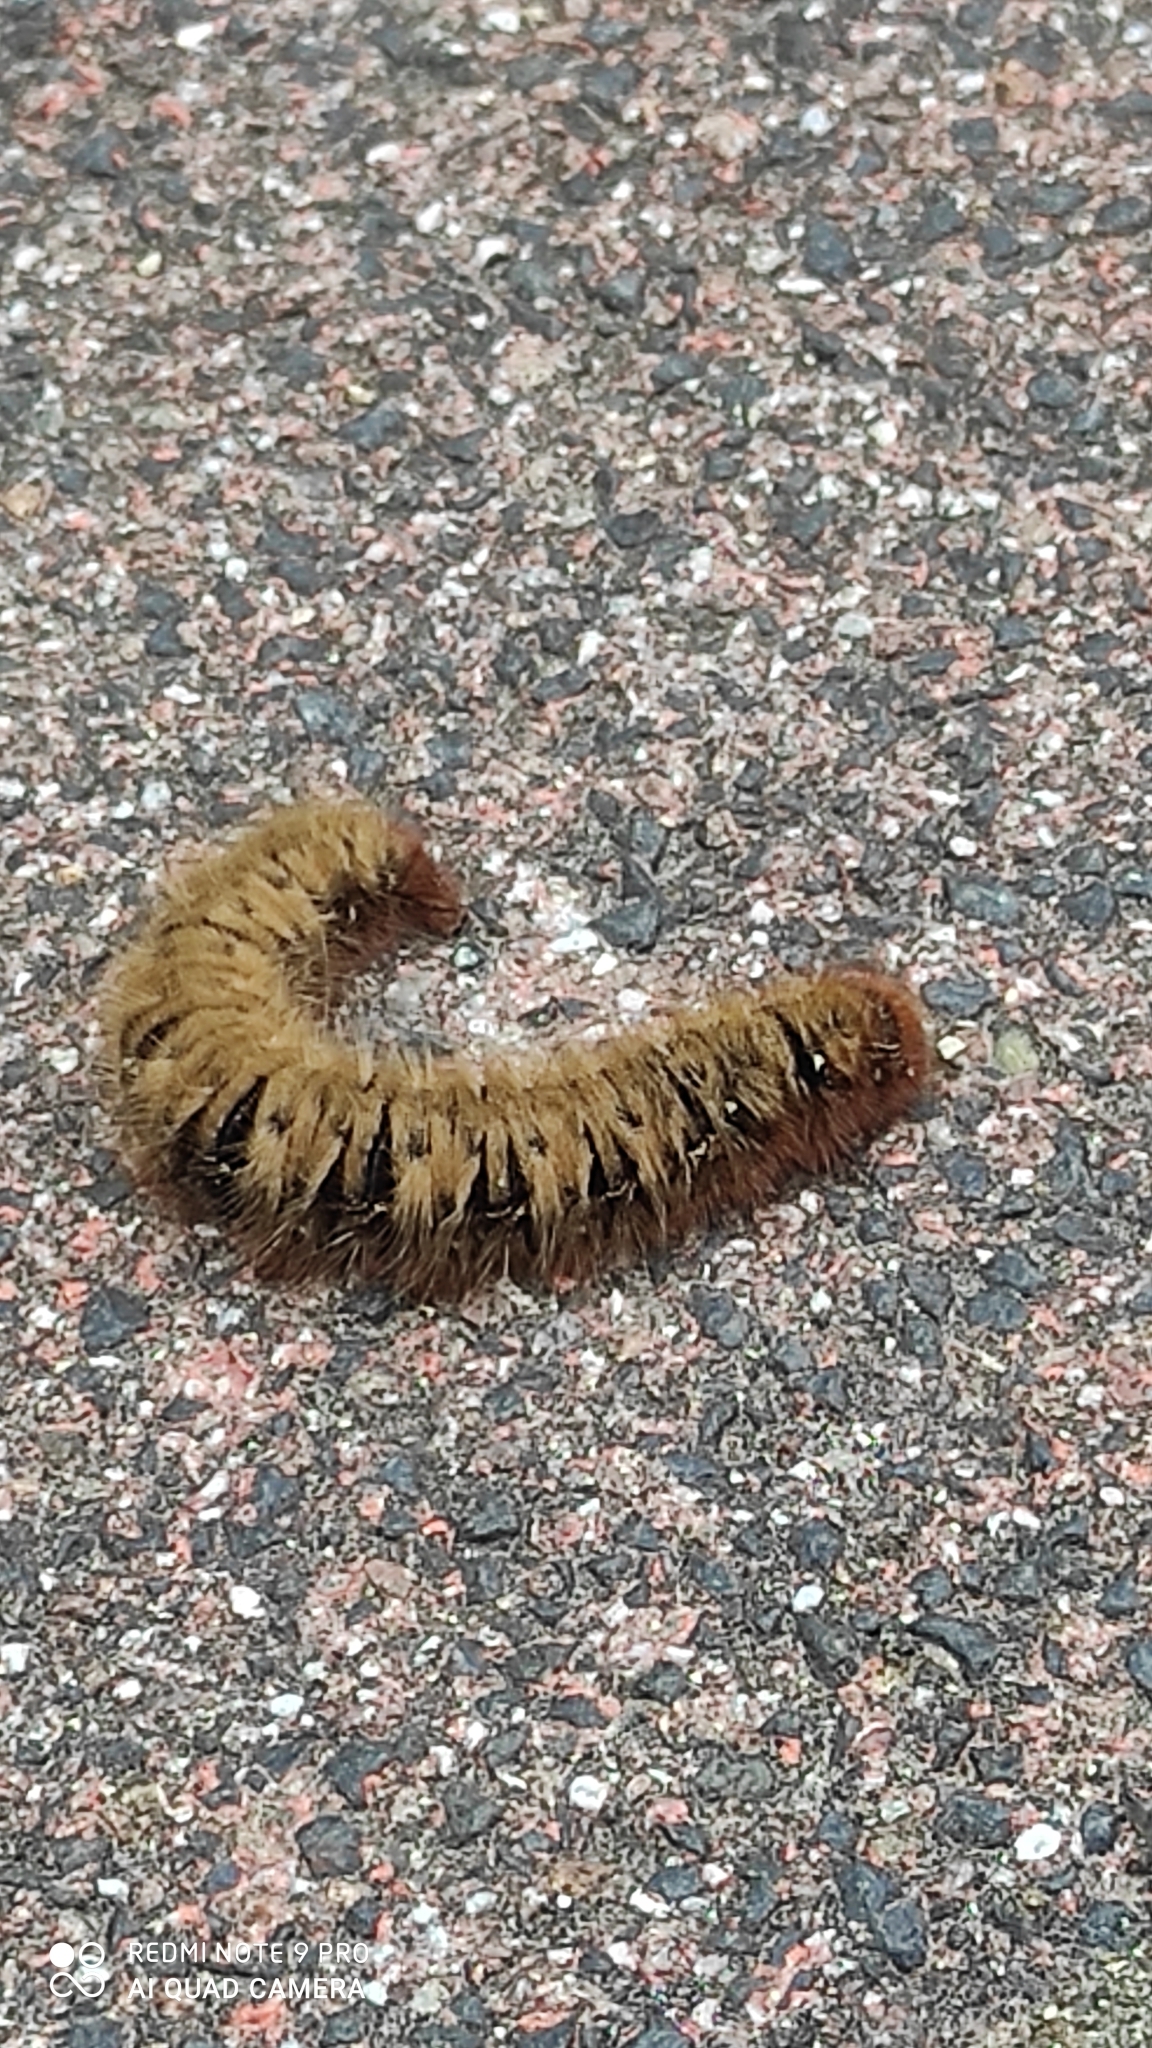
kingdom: Animalia
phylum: Arthropoda
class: Insecta
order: Lepidoptera
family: Lasiocampidae
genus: Lasiocampa
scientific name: Lasiocampa quercus
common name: Oak eggar
